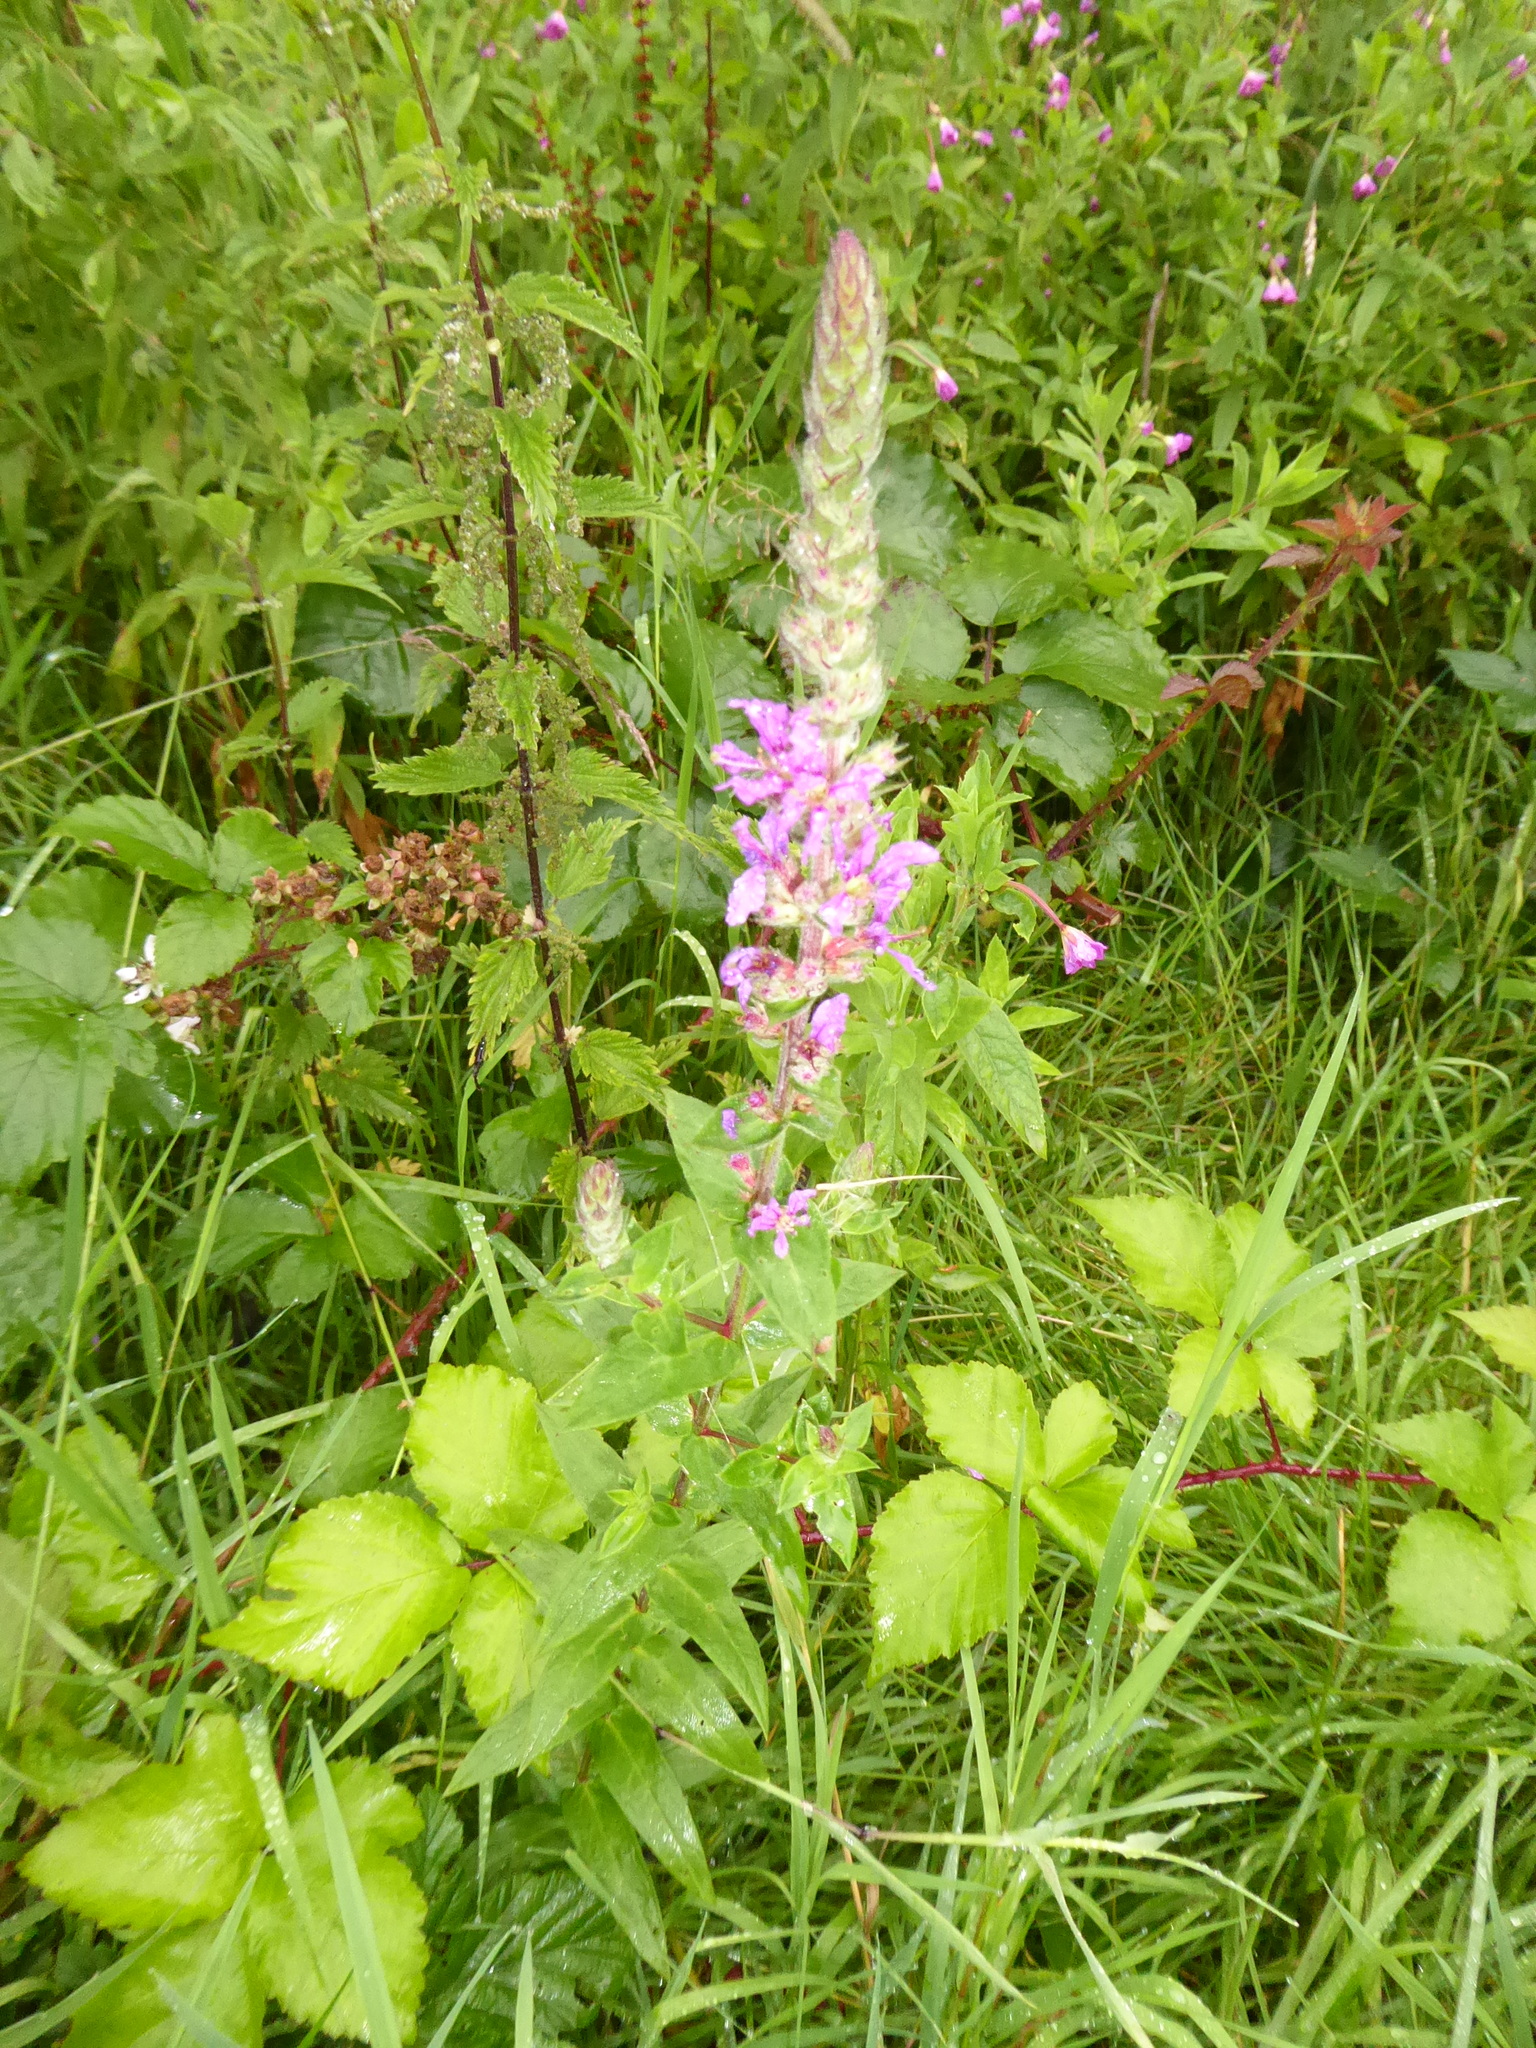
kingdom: Plantae
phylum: Tracheophyta
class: Magnoliopsida
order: Myrtales
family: Lythraceae
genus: Lythrum
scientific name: Lythrum salicaria
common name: Purple loosestrife
